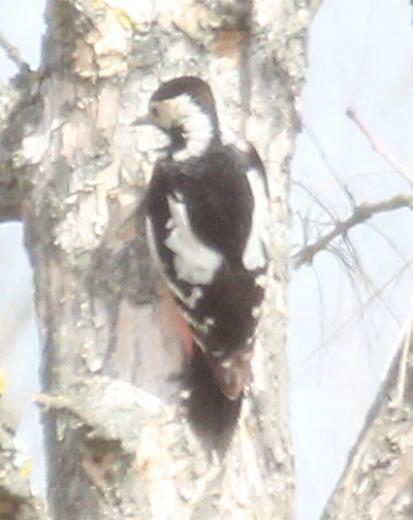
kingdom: Animalia
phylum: Chordata
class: Aves
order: Piciformes
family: Picidae
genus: Dendrocopos
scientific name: Dendrocopos syriacus
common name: Syrian woodpecker
